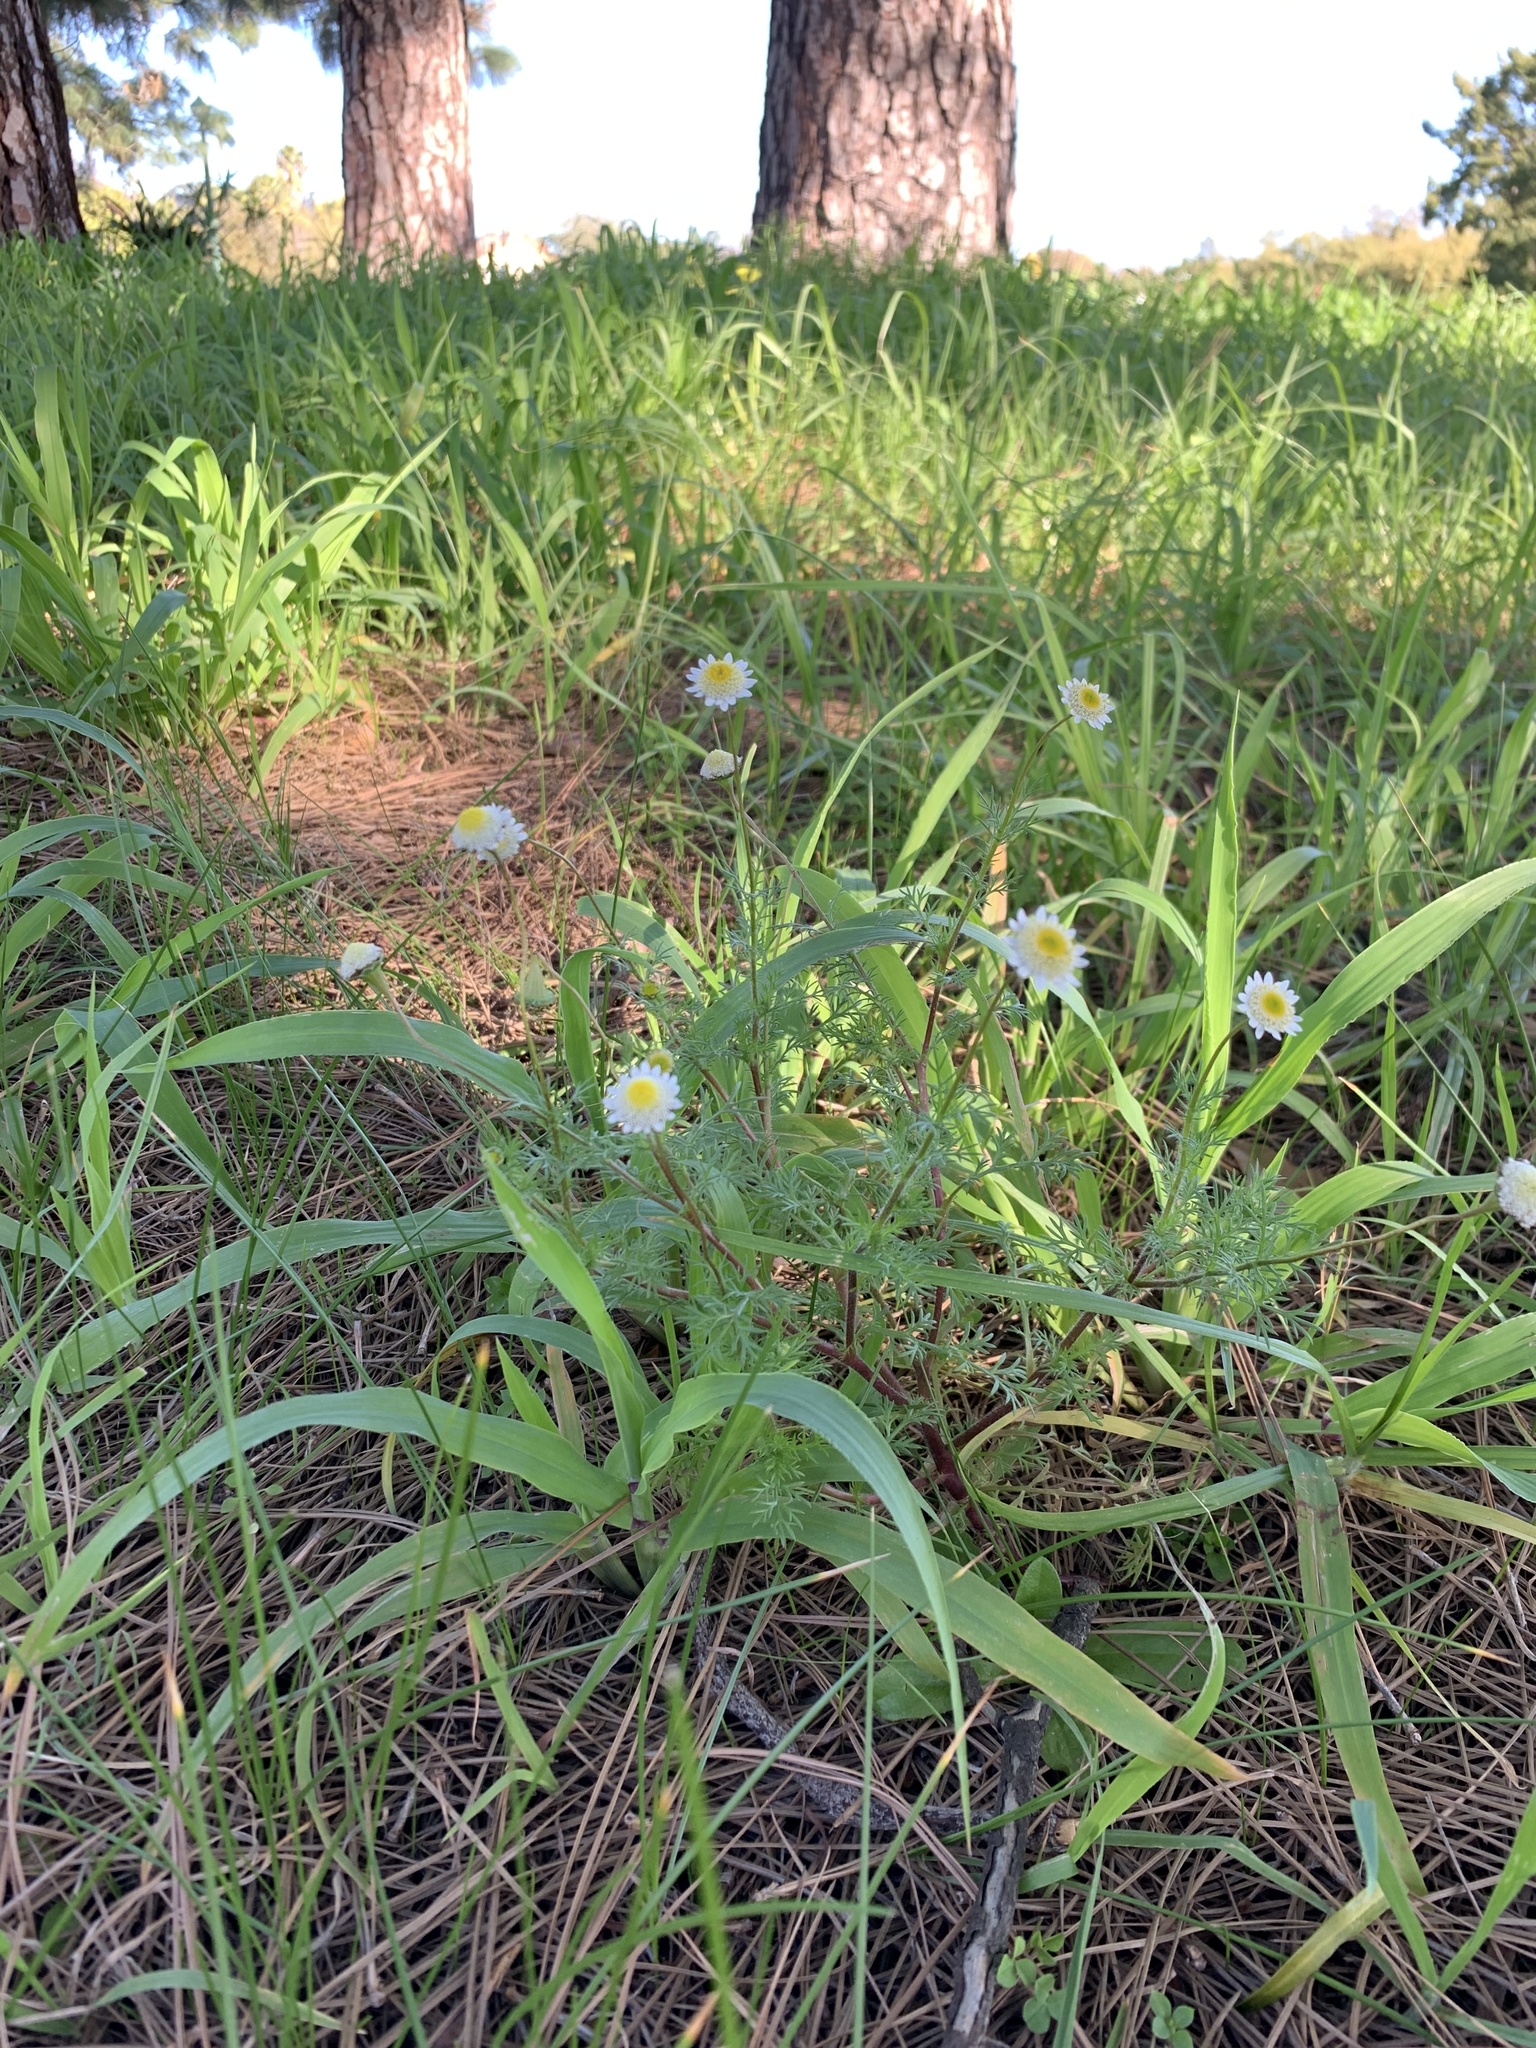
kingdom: Plantae
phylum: Tracheophyta
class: Magnoliopsida
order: Asterales
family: Asteraceae
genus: Cotula
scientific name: Cotula turbinata
